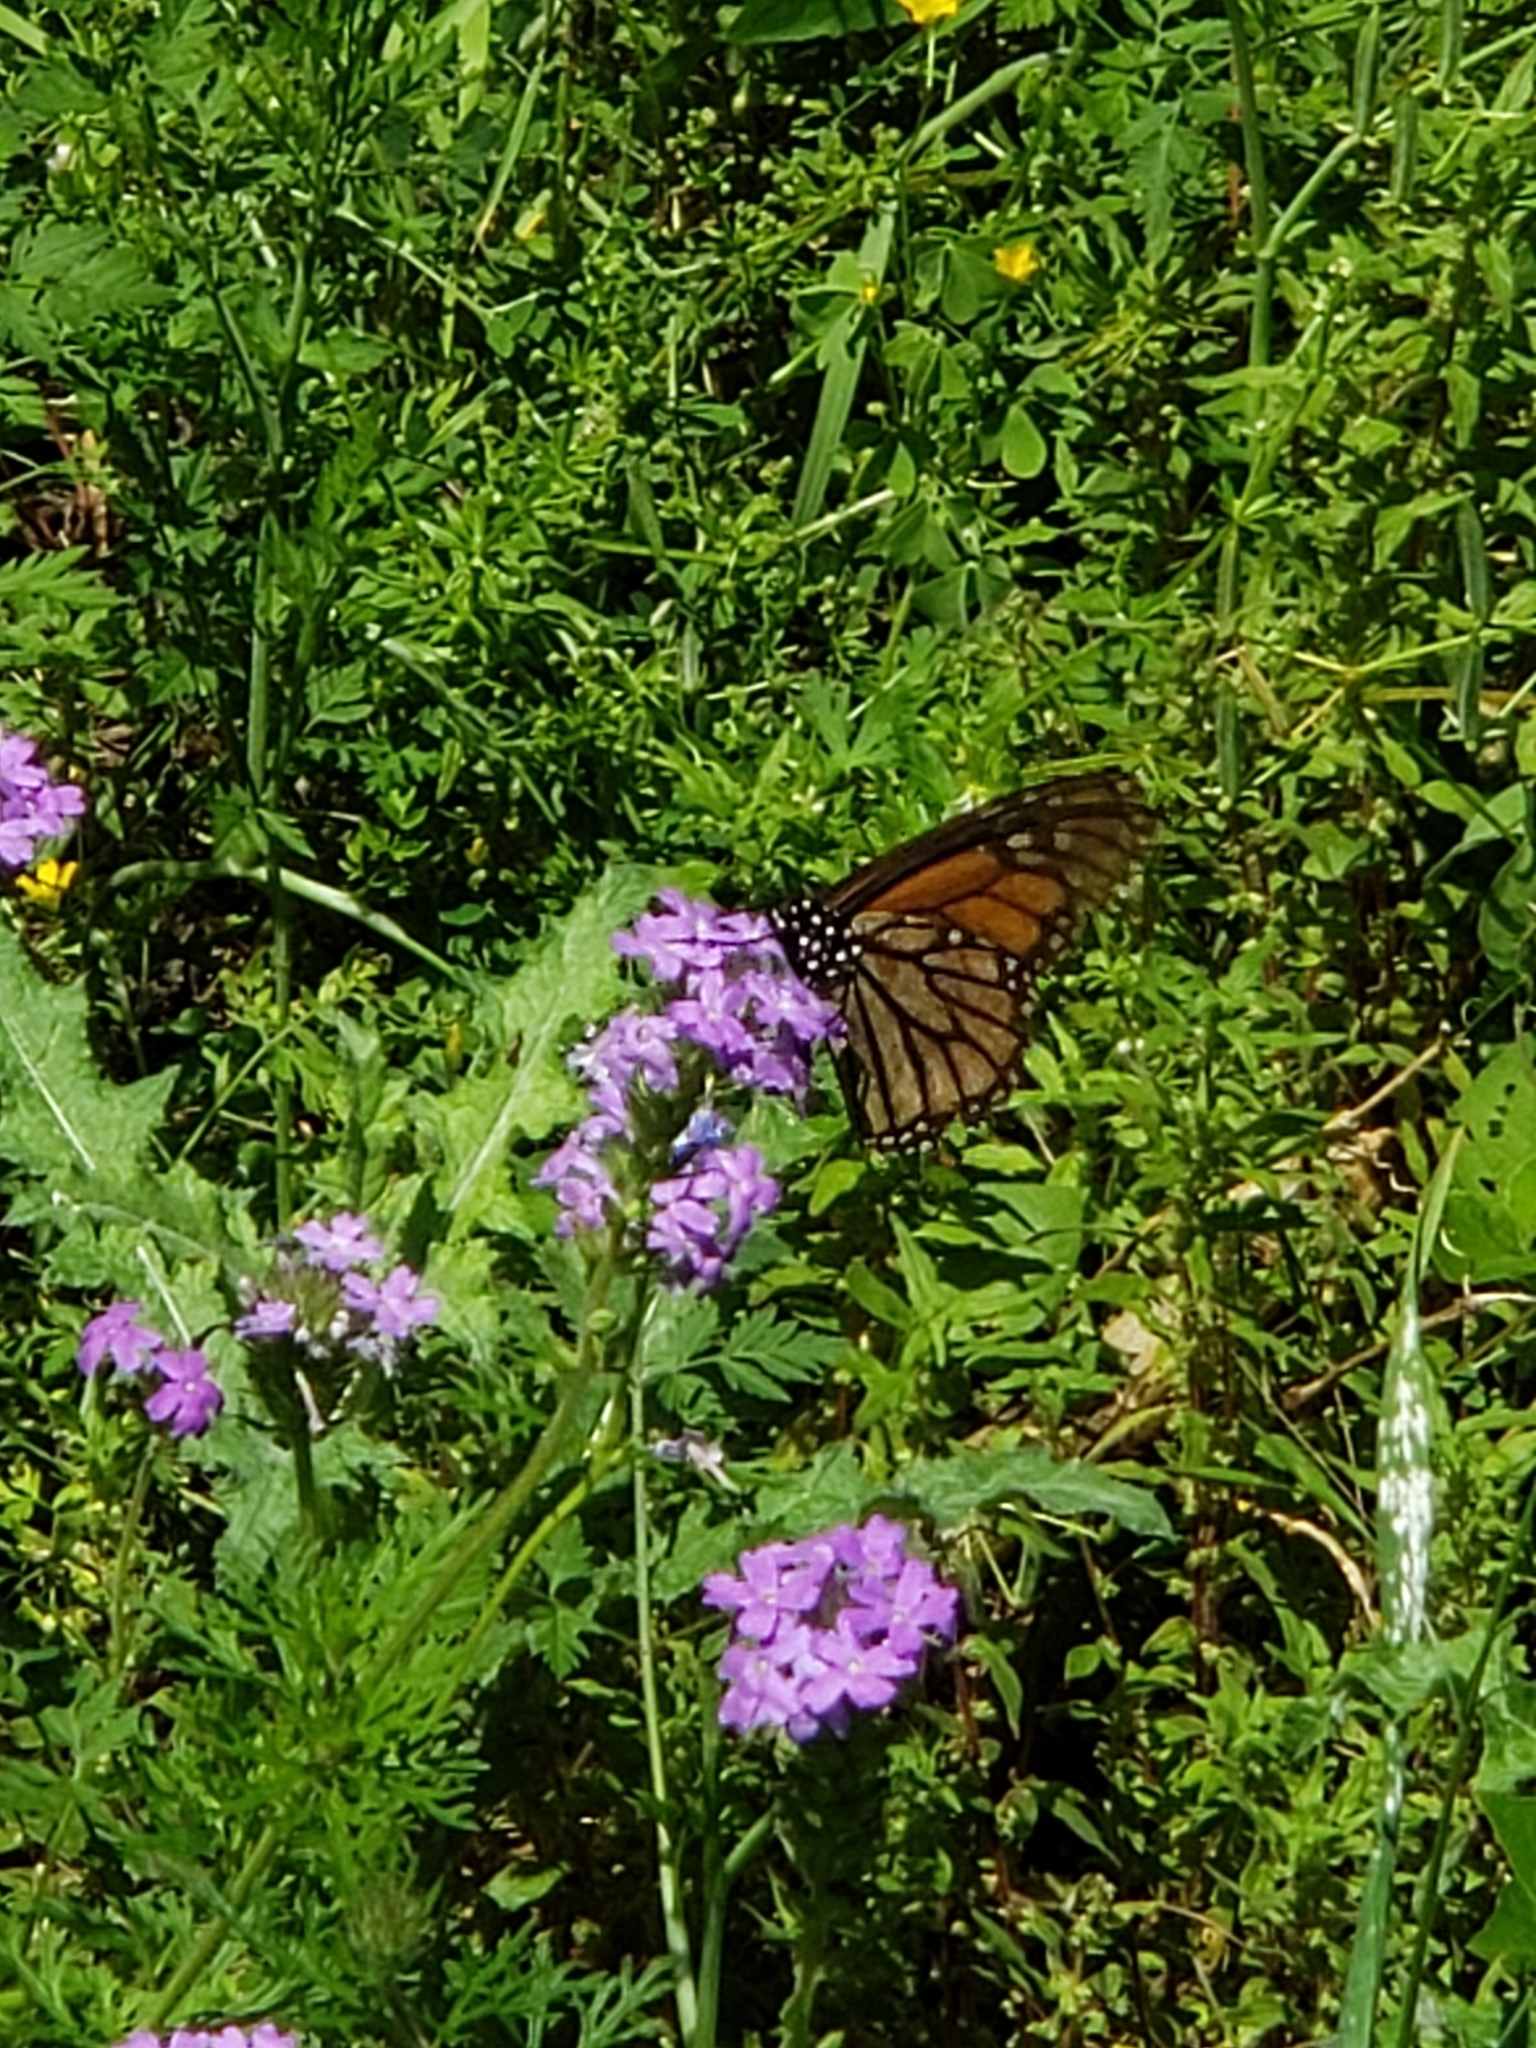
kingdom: Animalia
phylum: Arthropoda
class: Insecta
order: Lepidoptera
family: Nymphalidae
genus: Danaus
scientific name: Danaus plexippus
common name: Monarch
